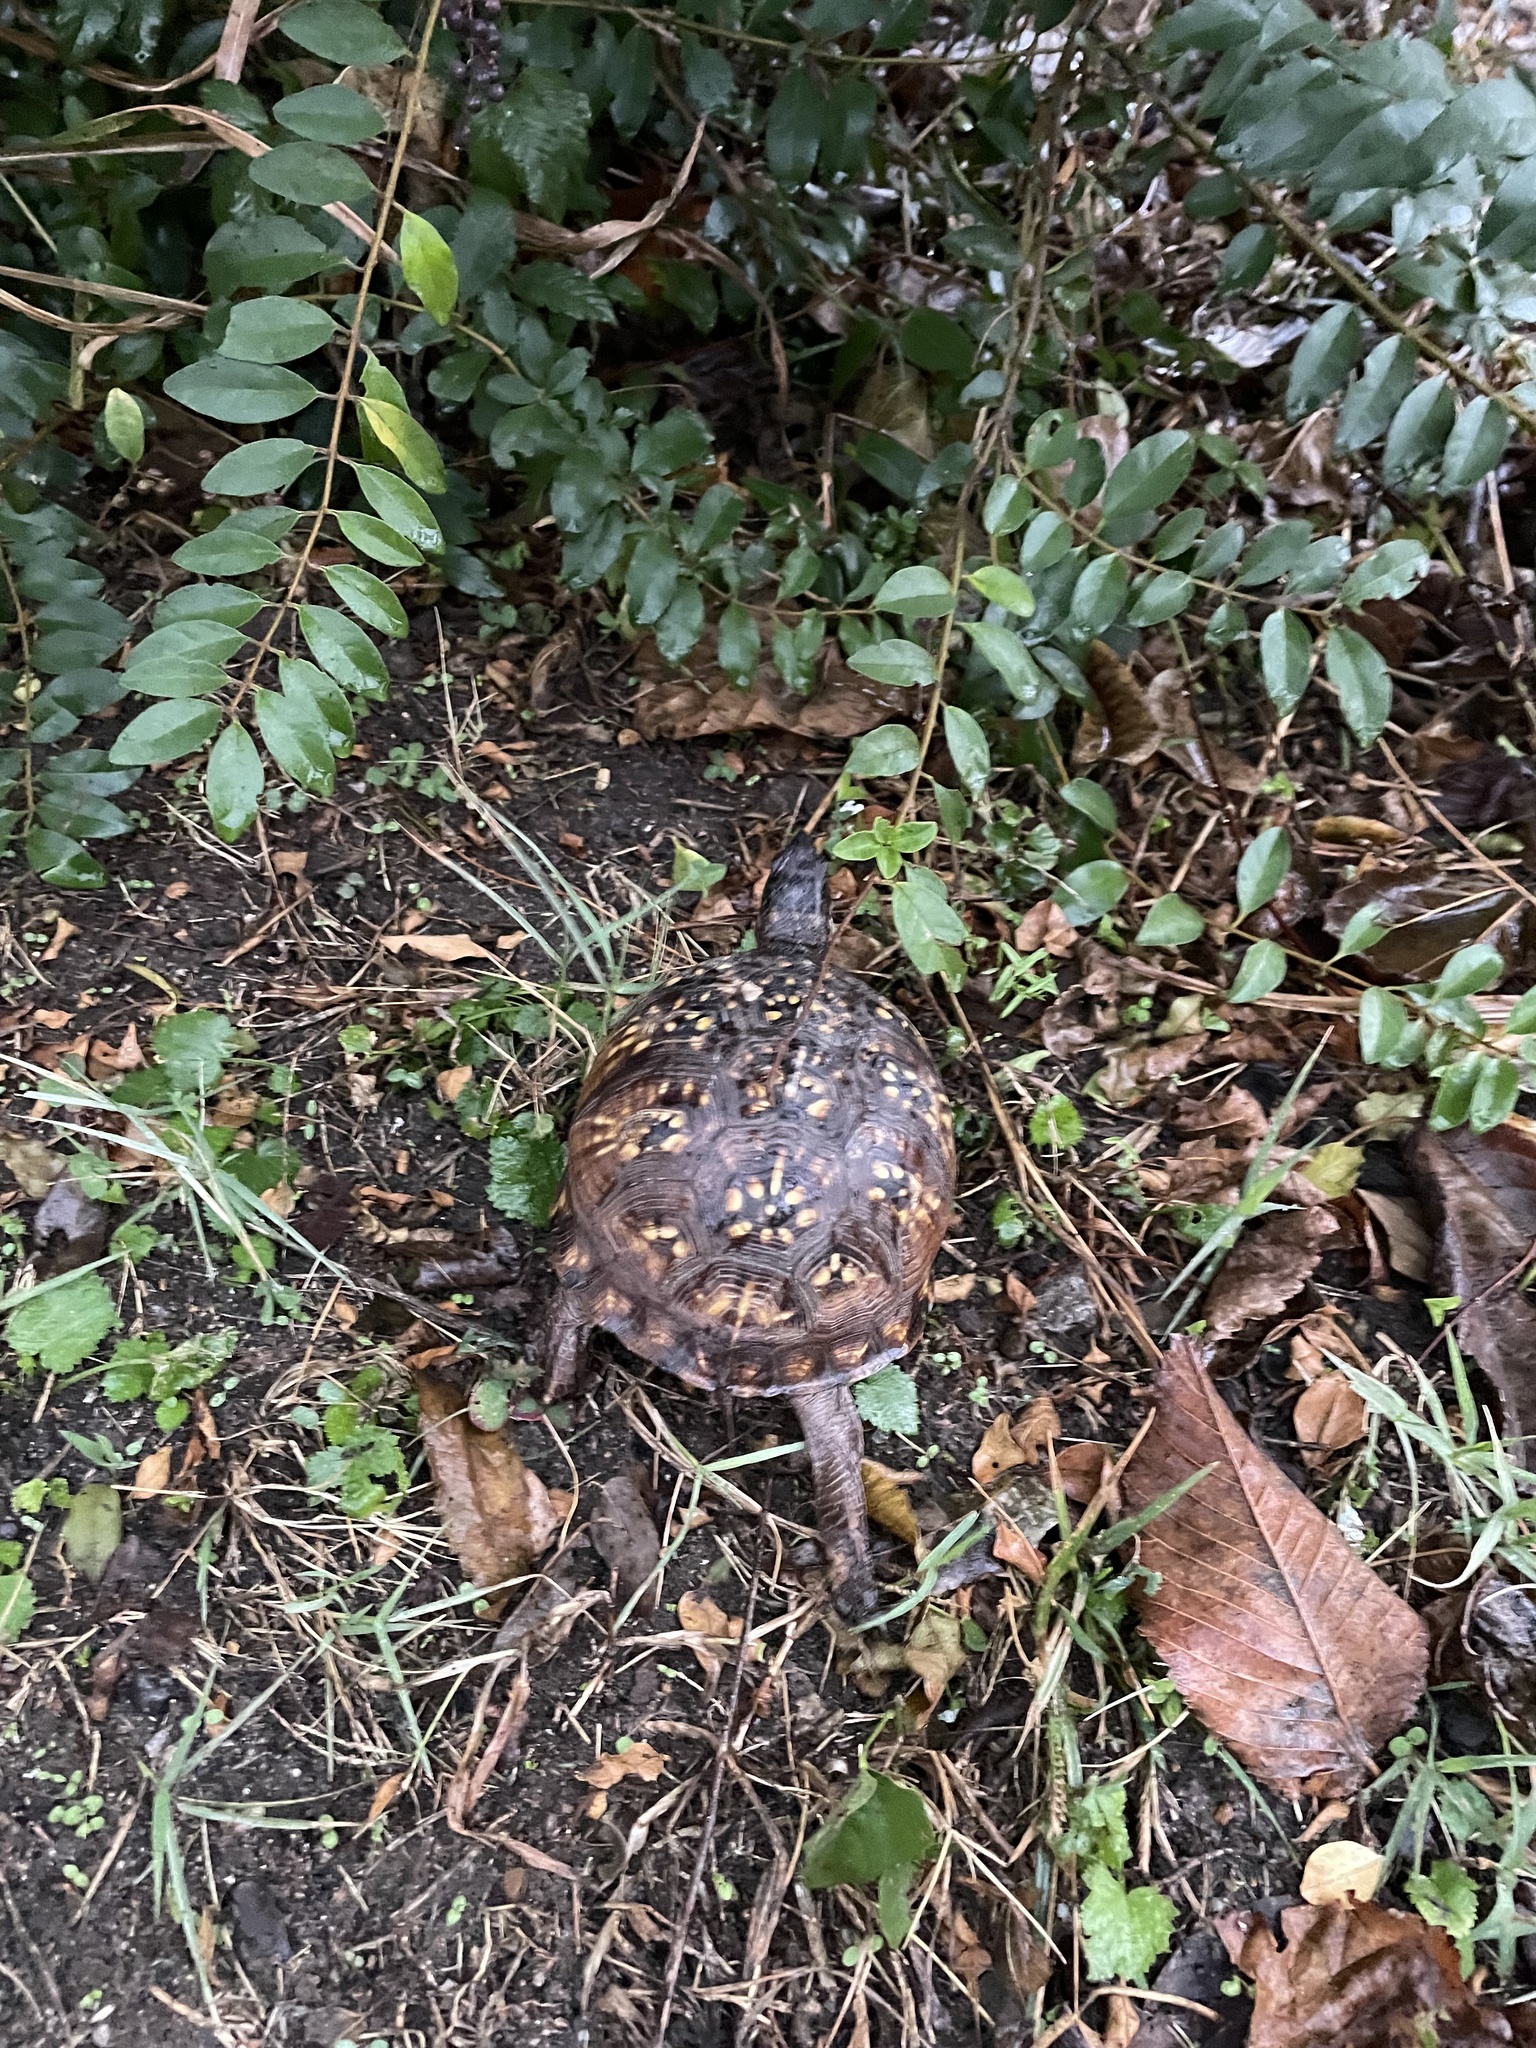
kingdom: Animalia
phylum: Chordata
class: Testudines
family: Emydidae
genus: Terrapene
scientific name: Terrapene carolina
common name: Common box turtle
